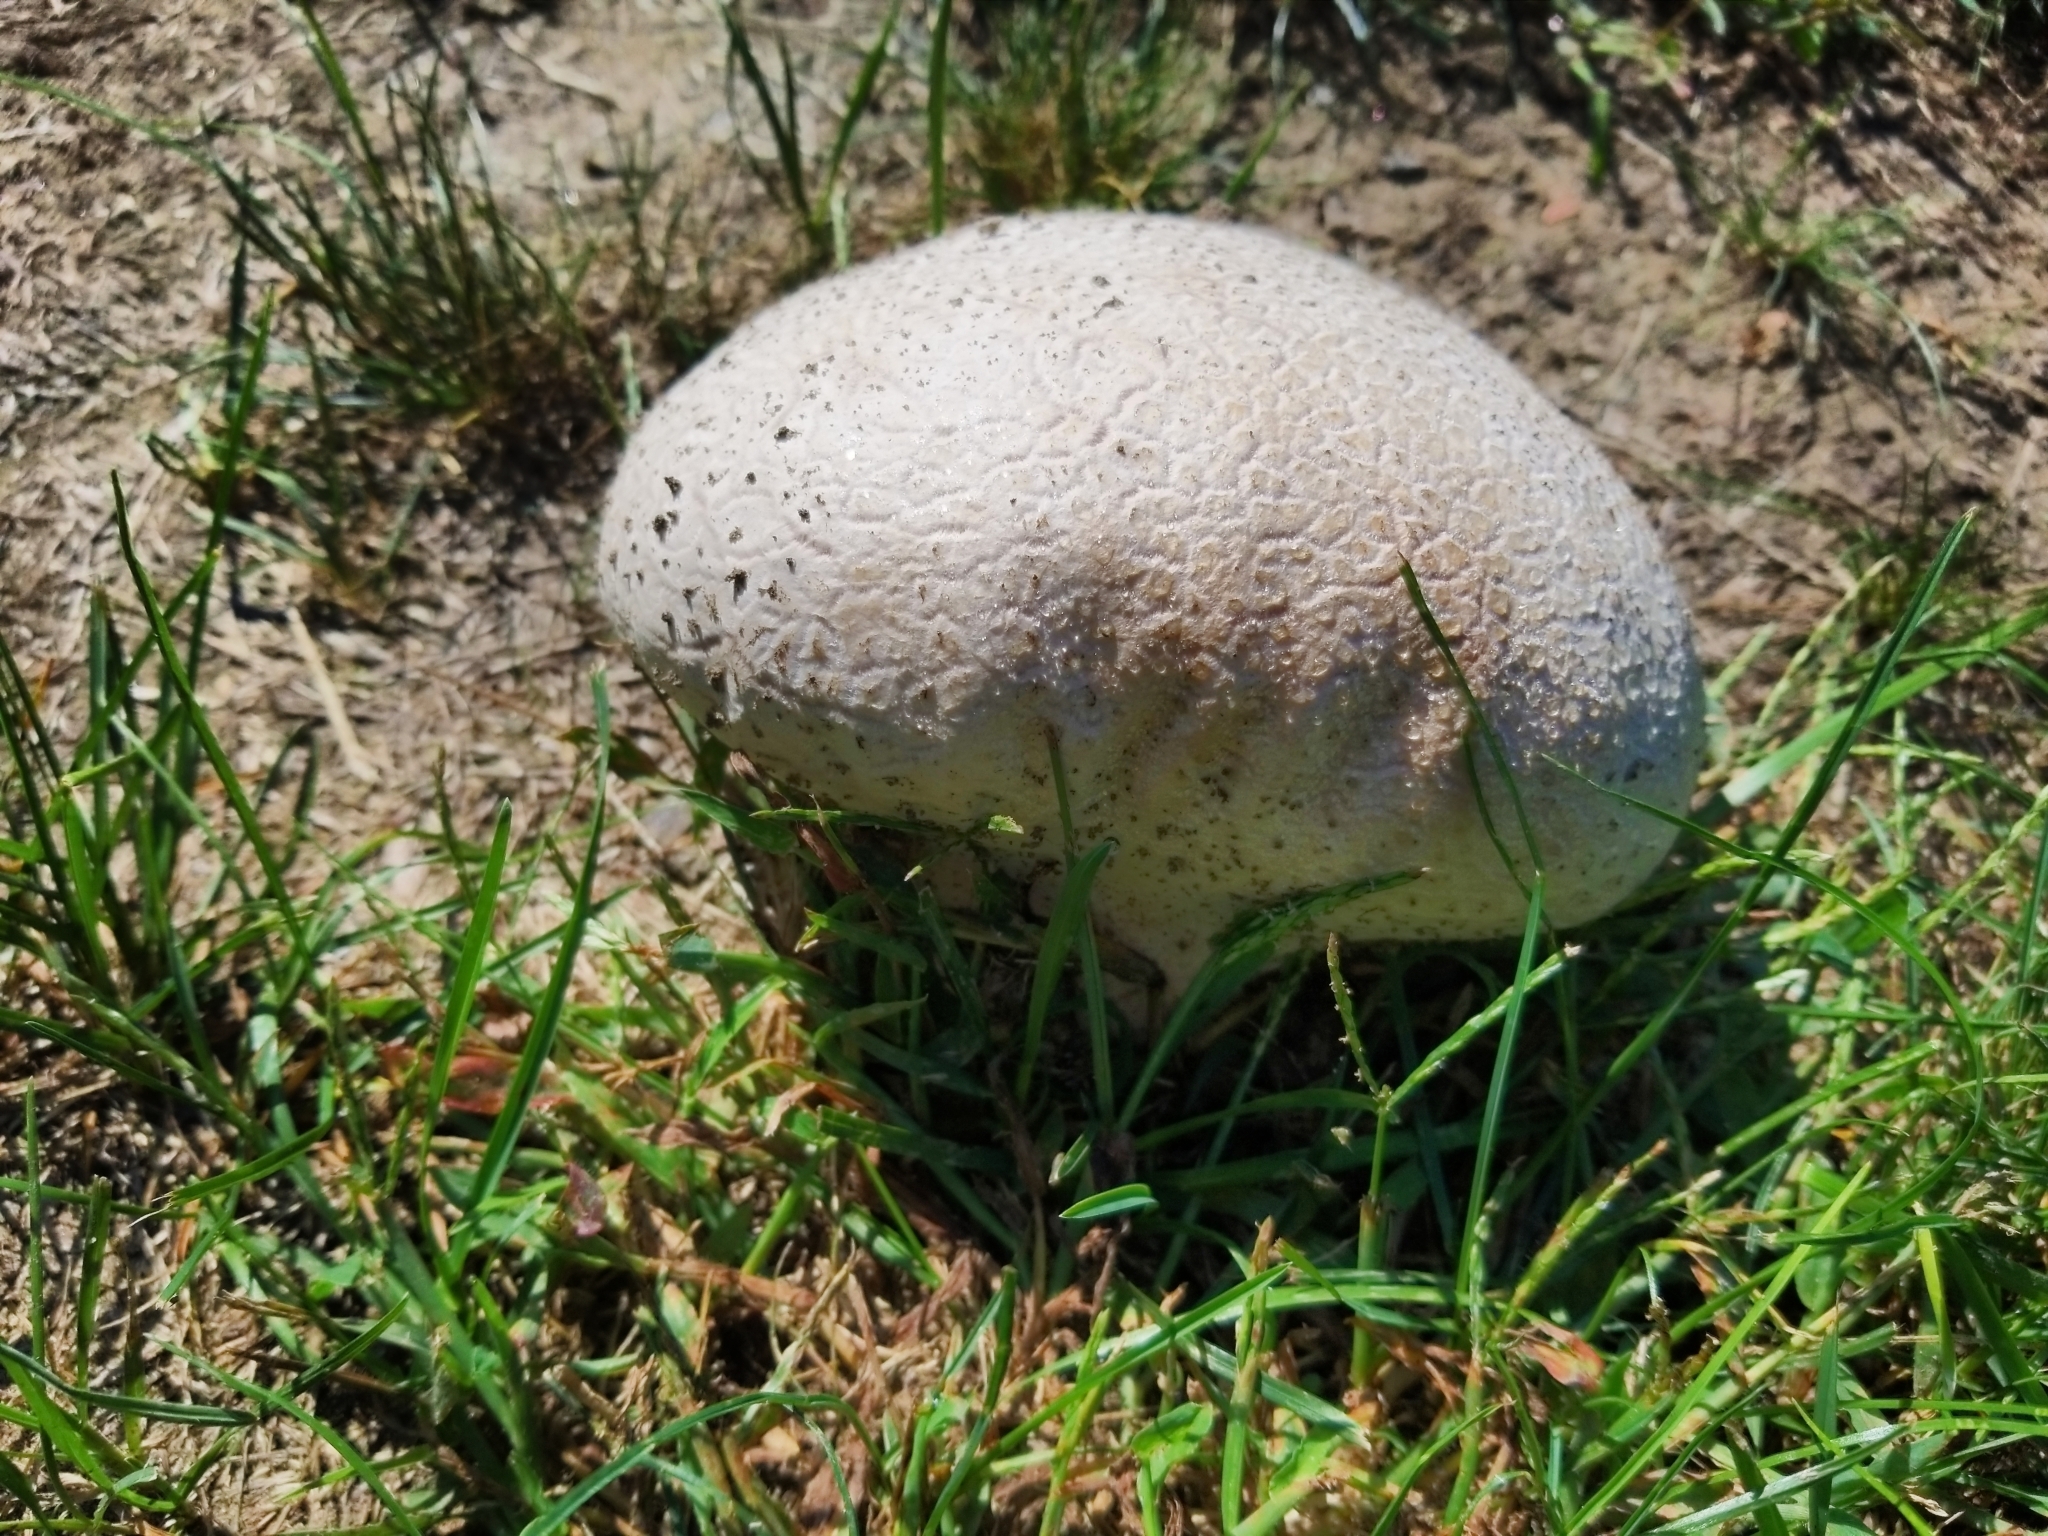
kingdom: Fungi
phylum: Basidiomycota
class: Agaricomycetes
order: Boletales
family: Sclerodermataceae
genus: Scleroderma
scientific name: Scleroderma citrinum
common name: Common earthball
